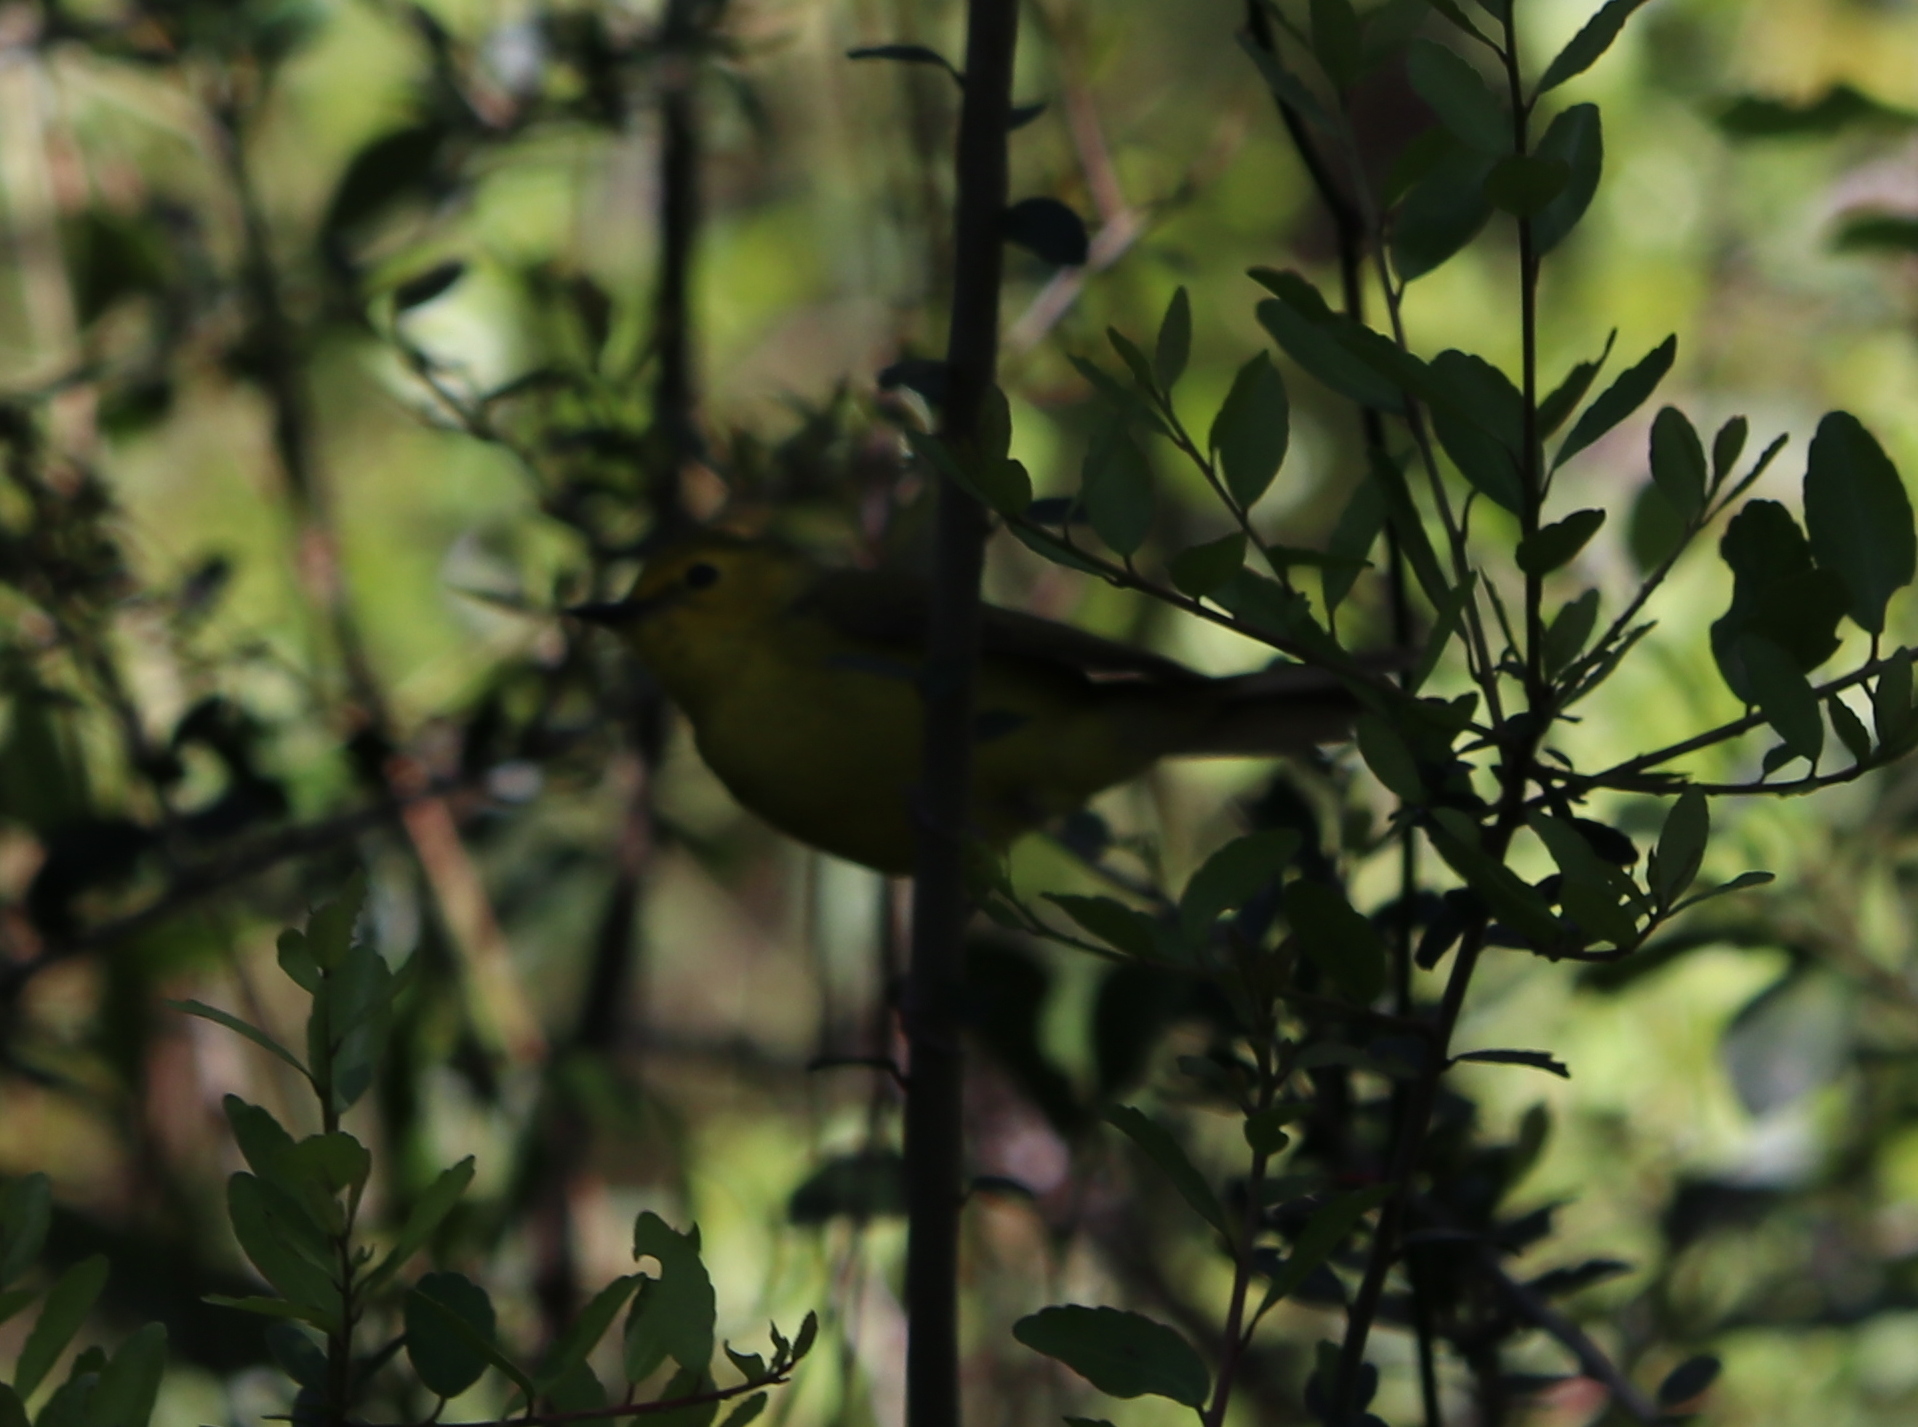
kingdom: Animalia
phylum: Chordata
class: Aves
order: Passeriformes
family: Parulidae
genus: Leiothlypis
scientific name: Leiothlypis celata
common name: Orange-crowned warbler
